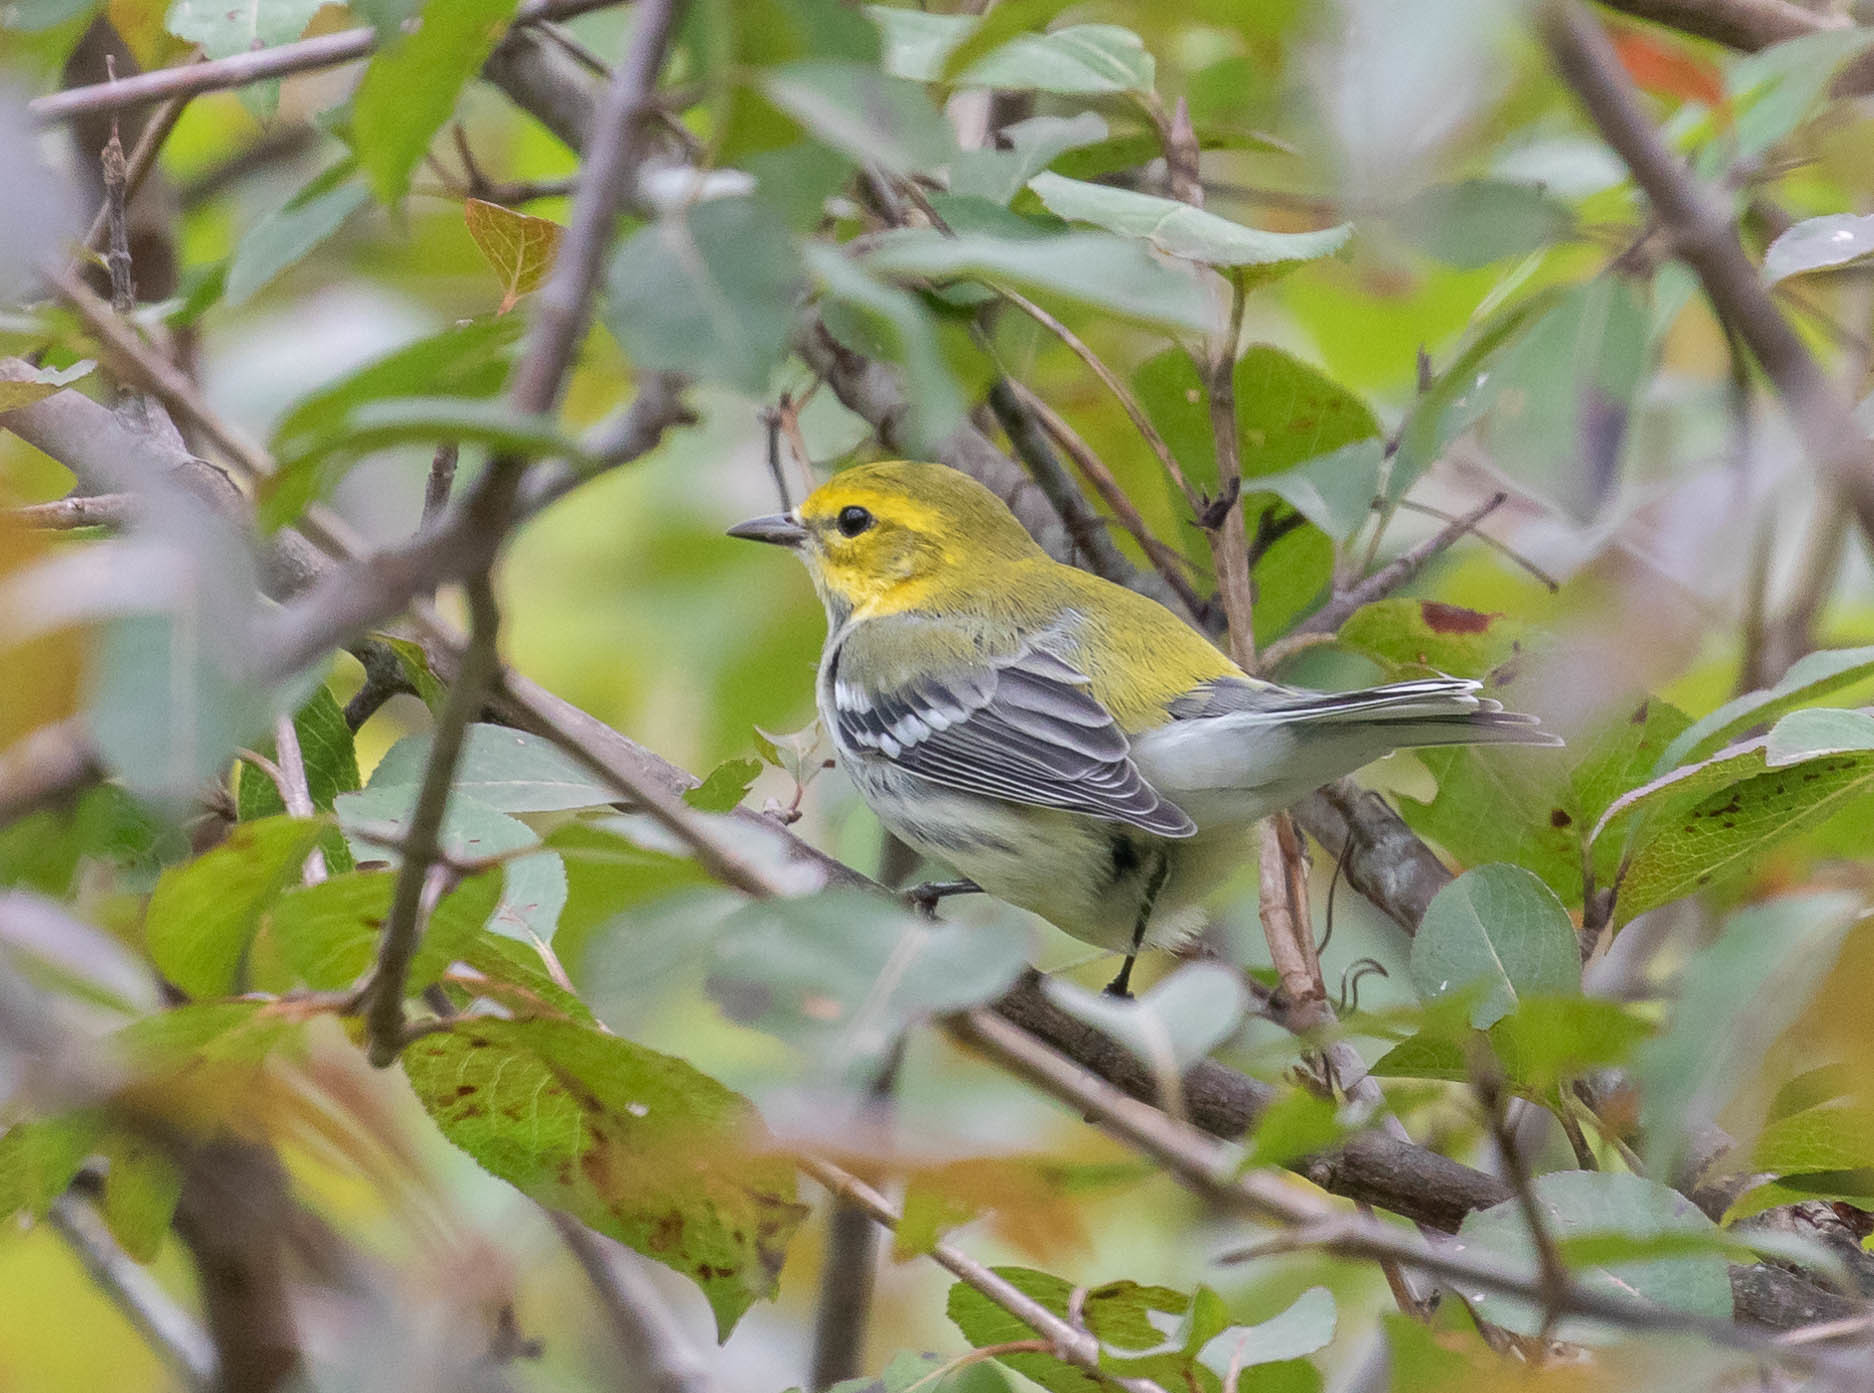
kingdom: Animalia
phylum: Chordata
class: Aves
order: Passeriformes
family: Parulidae
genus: Setophaga
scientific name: Setophaga virens
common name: Black-throated green warbler
